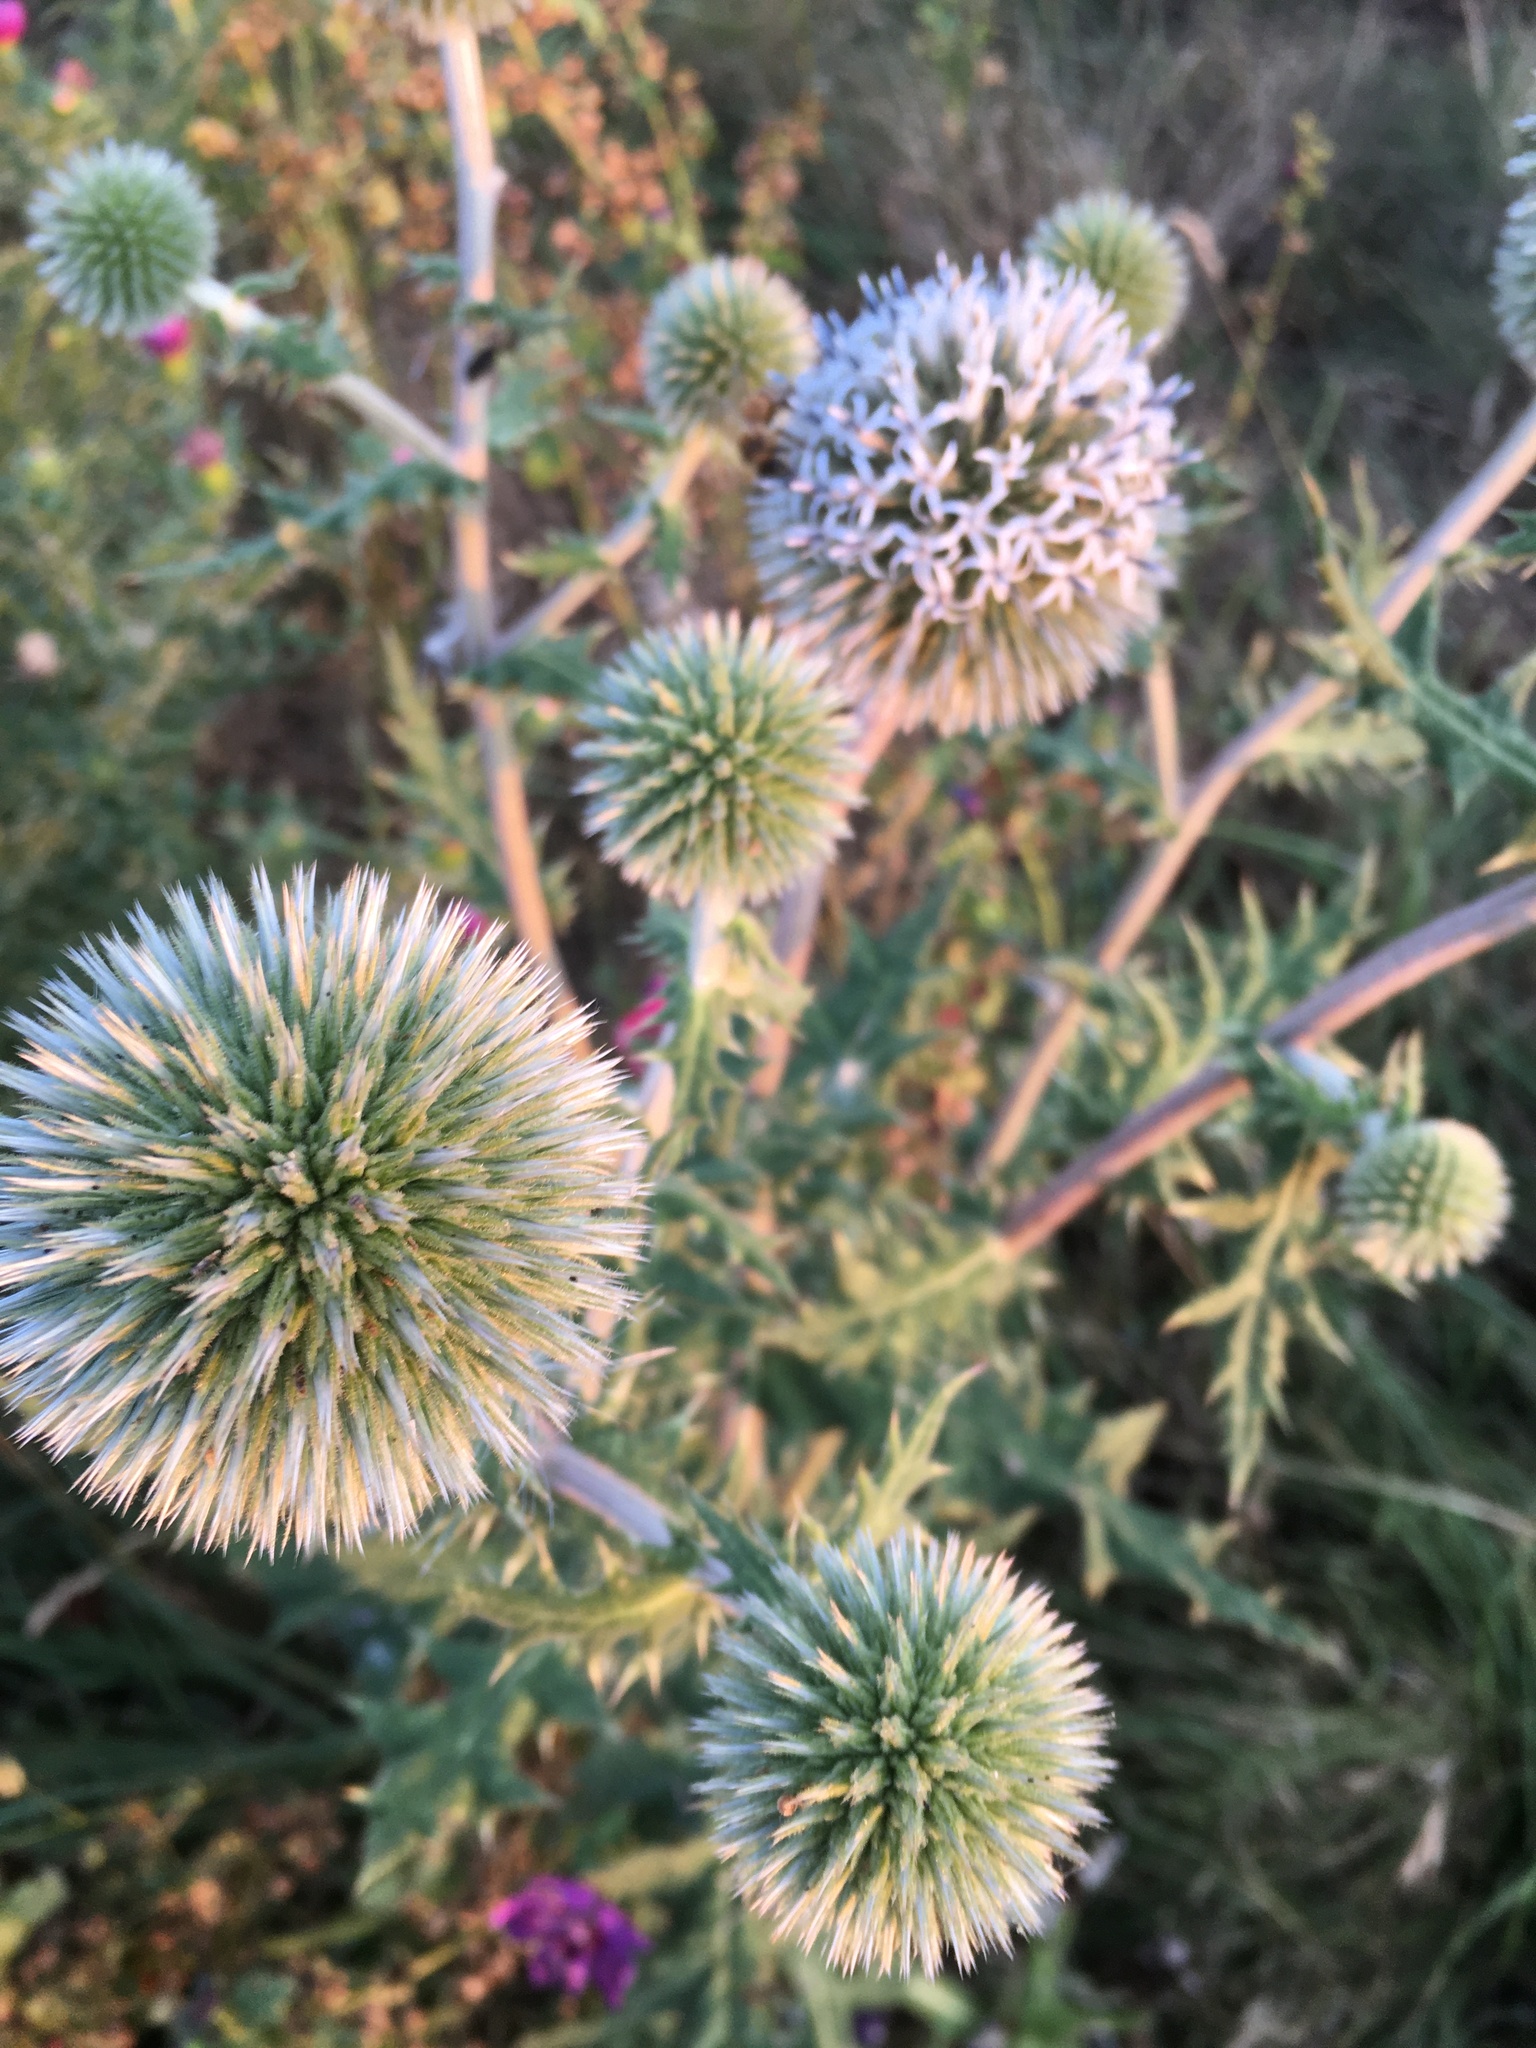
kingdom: Plantae
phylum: Tracheophyta
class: Magnoliopsida
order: Asterales
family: Asteraceae
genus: Echinops
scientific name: Echinops sphaerocephalus
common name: Glandular globe-thistle
